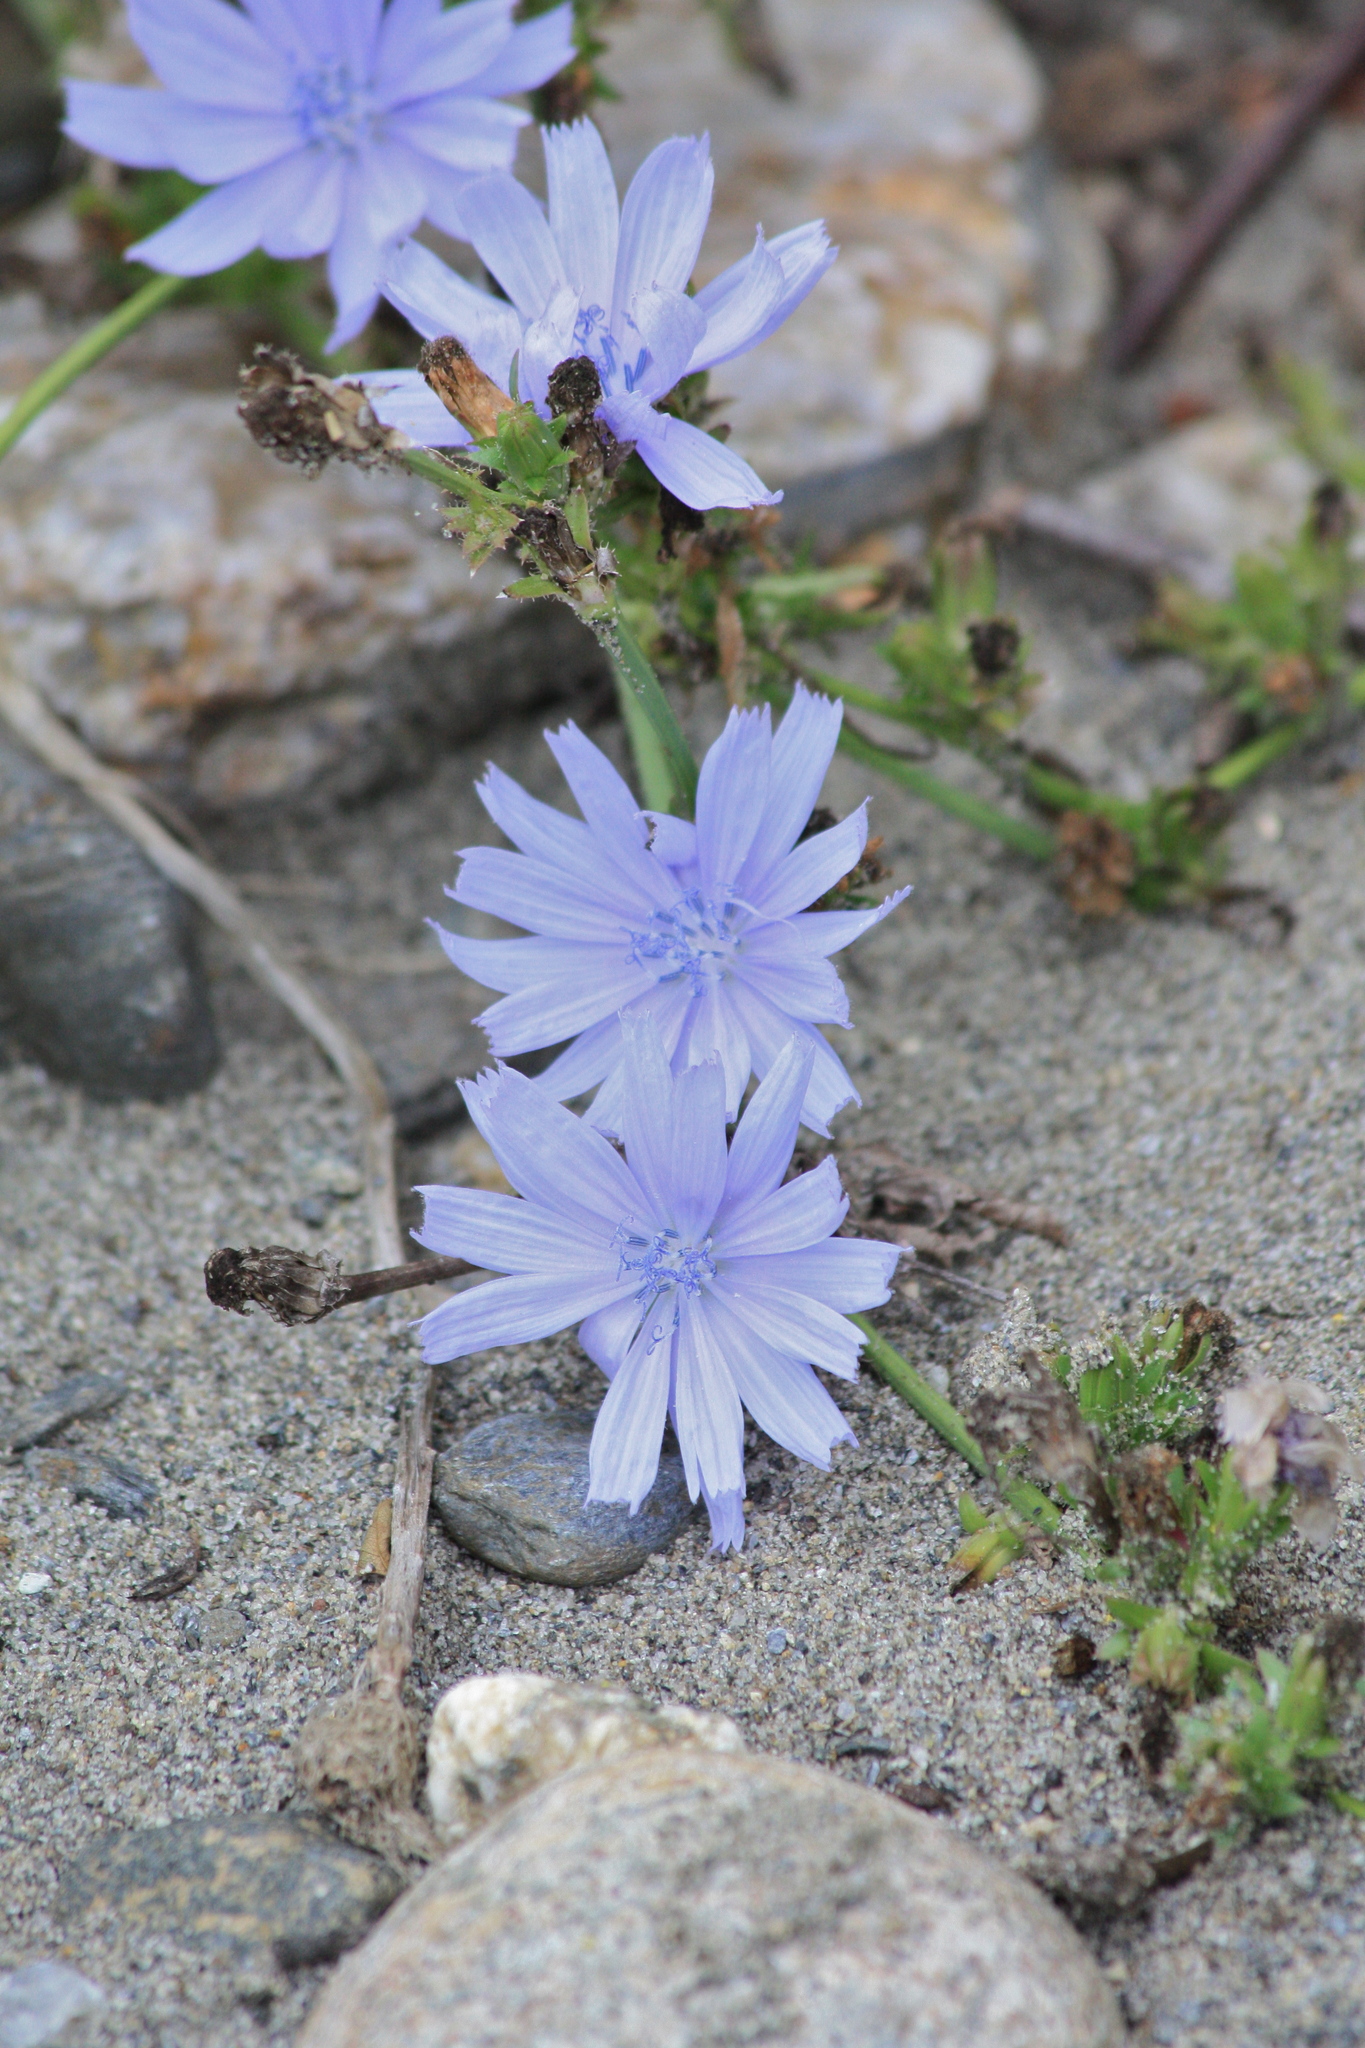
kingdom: Plantae
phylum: Tracheophyta
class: Magnoliopsida
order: Asterales
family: Asteraceae
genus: Cichorium
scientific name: Cichorium intybus
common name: Chicory
